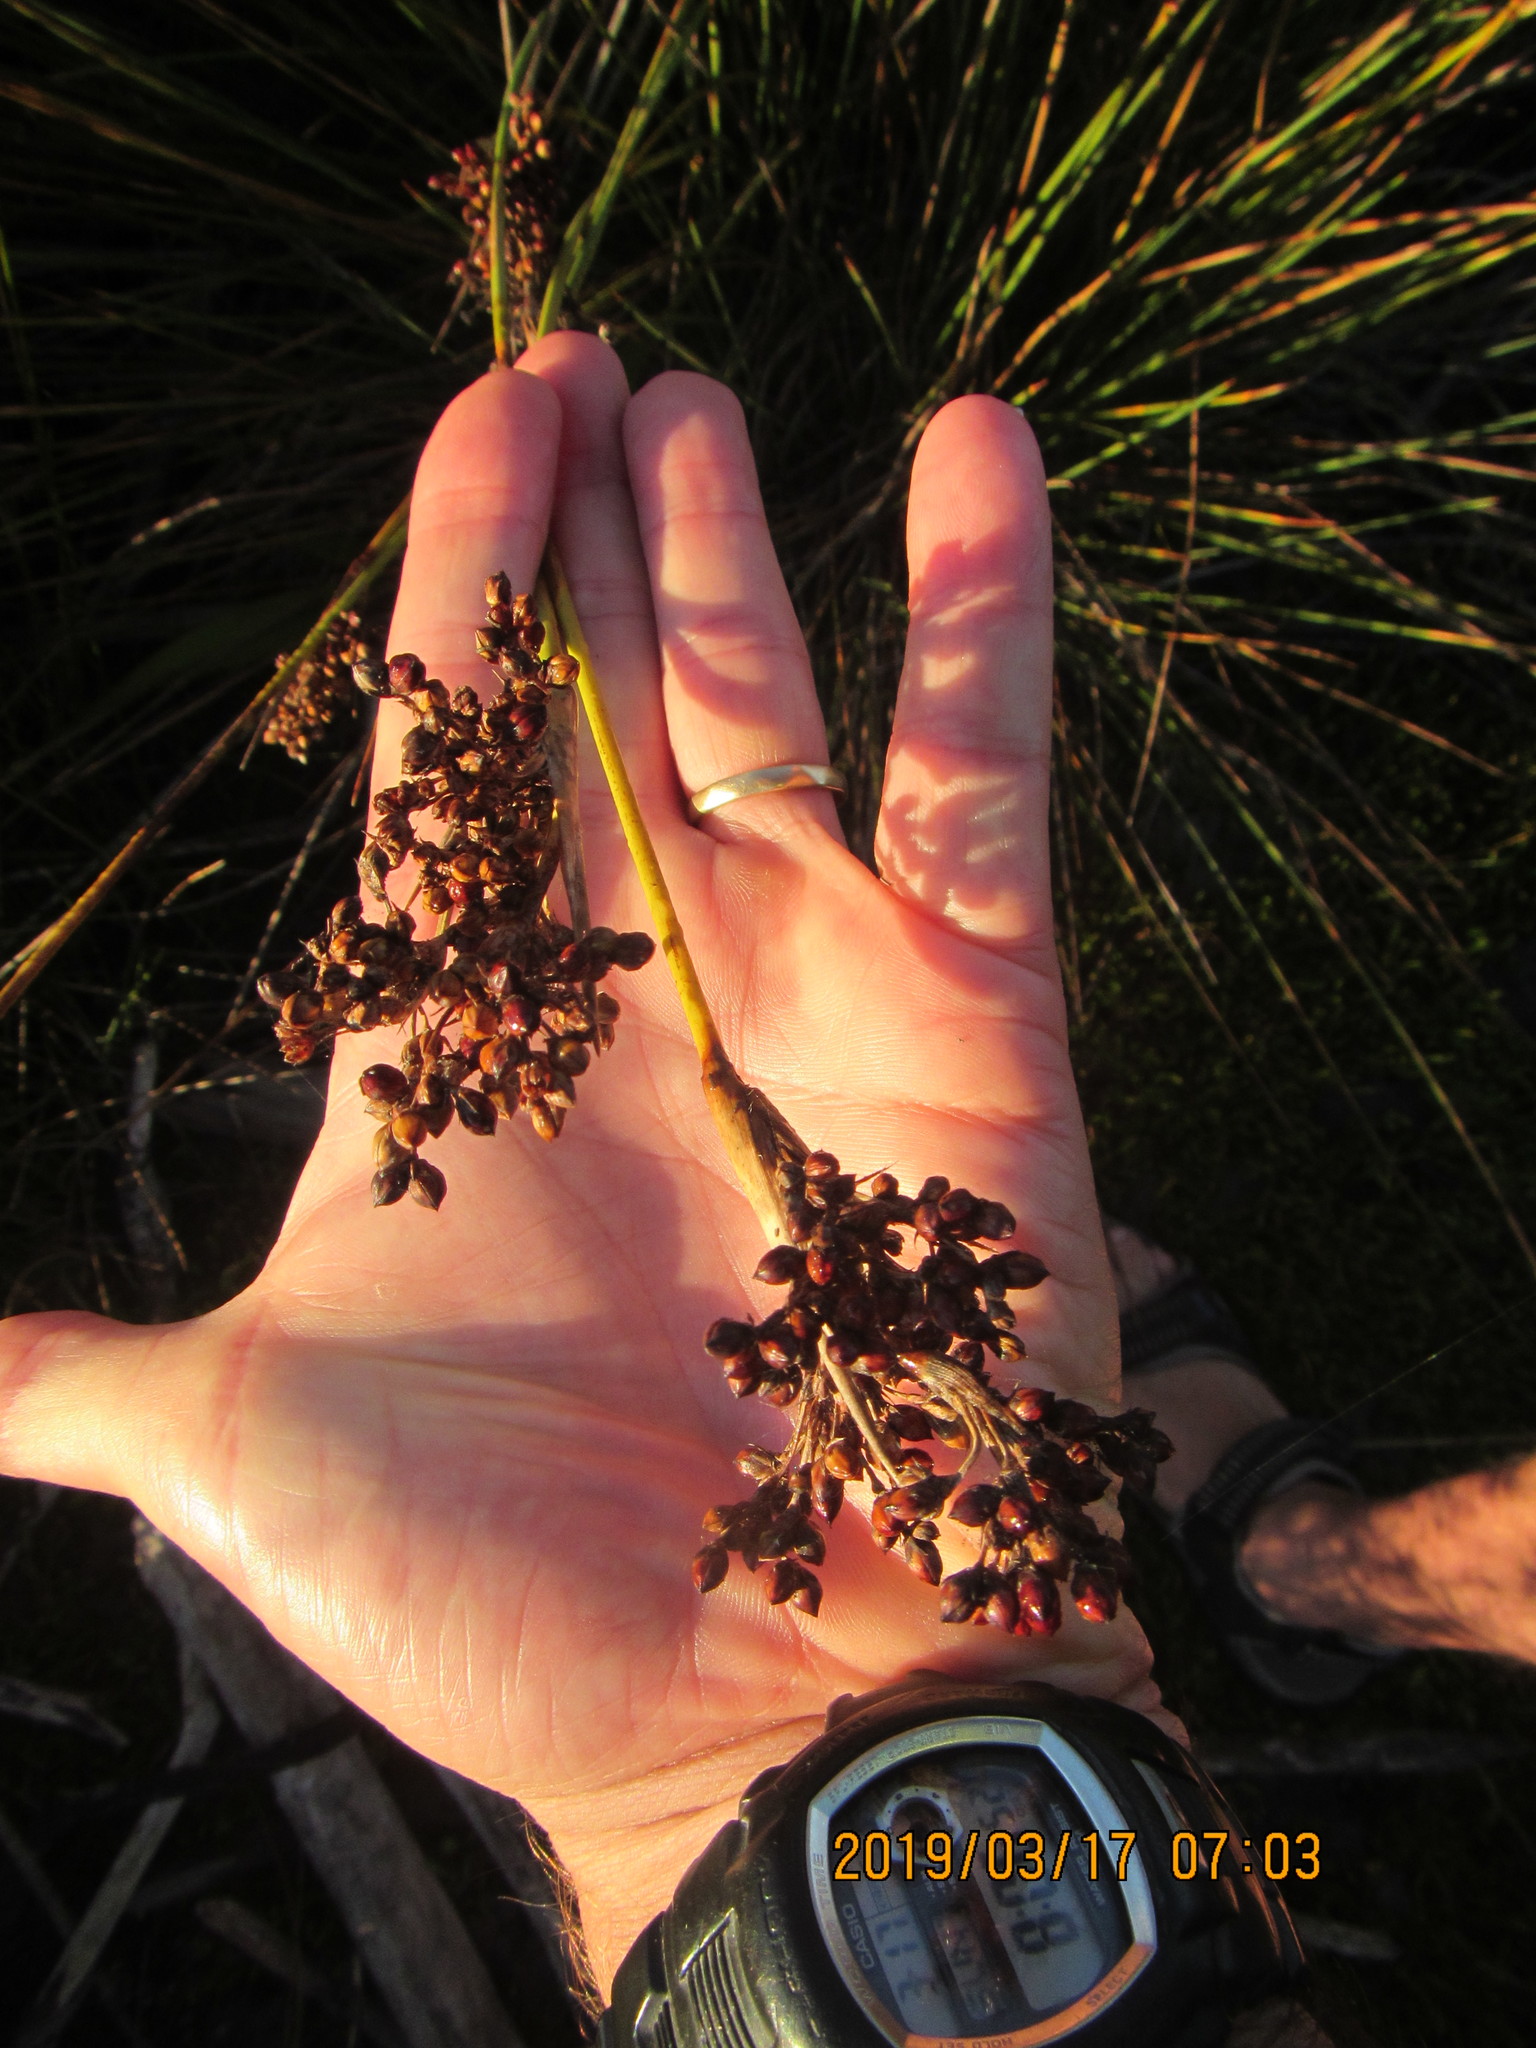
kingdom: Plantae
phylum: Tracheophyta
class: Liliopsida
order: Poales
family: Juncaceae
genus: Juncus
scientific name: Juncus acutus
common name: Sharp rush
